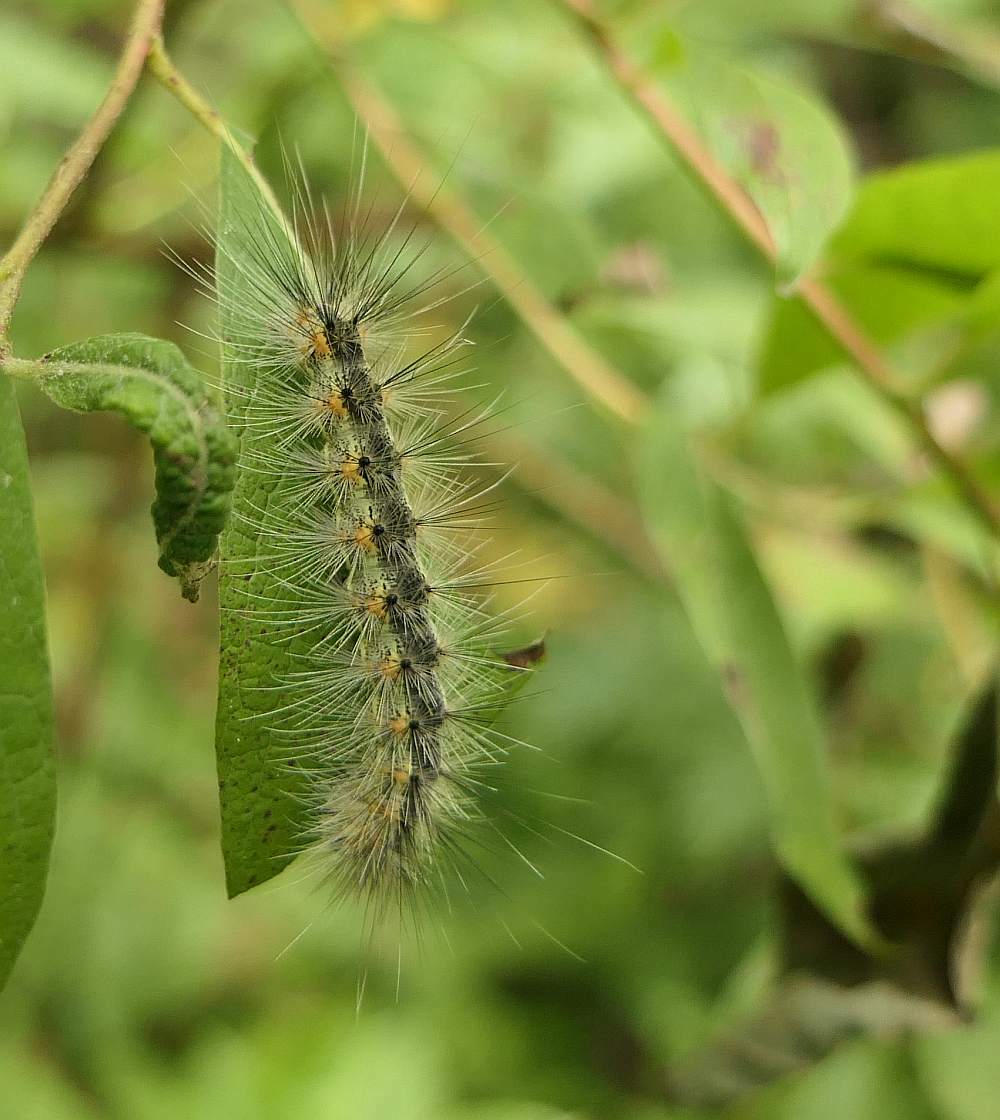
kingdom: Animalia
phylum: Arthropoda
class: Insecta
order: Lepidoptera
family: Erebidae
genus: Hyphantria
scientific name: Hyphantria cunea
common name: American white moth
